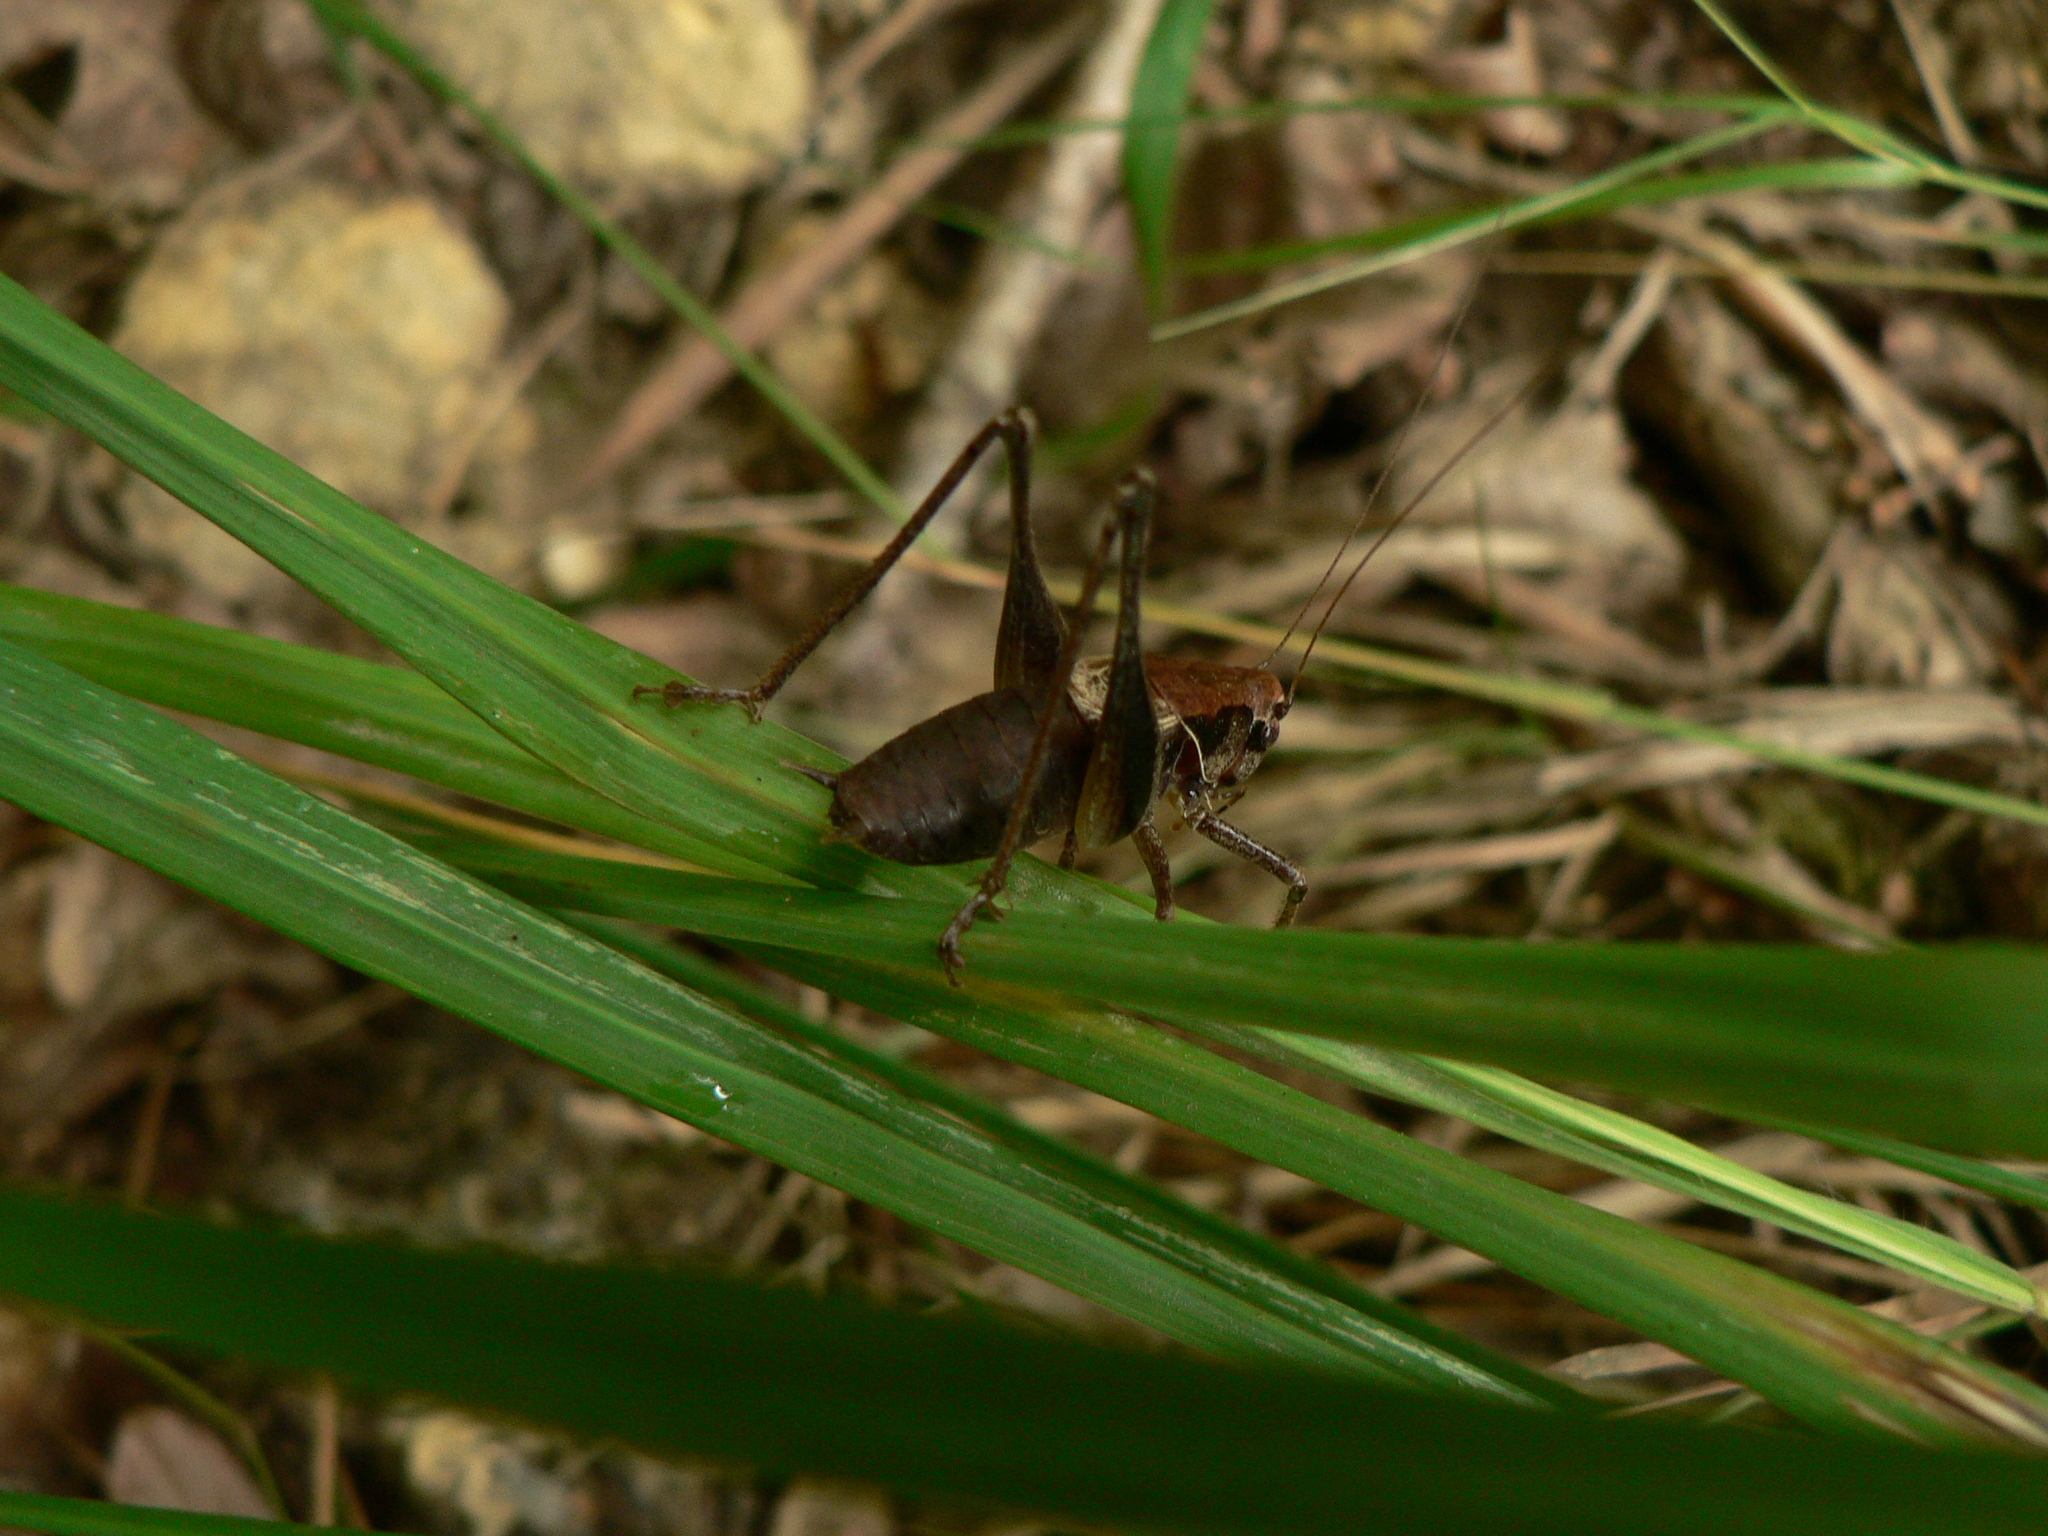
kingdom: Animalia
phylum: Arthropoda
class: Insecta
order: Orthoptera
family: Tettigoniidae
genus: Pholidoptera
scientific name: Pholidoptera griseoaptera
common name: Dark bush-cricket
